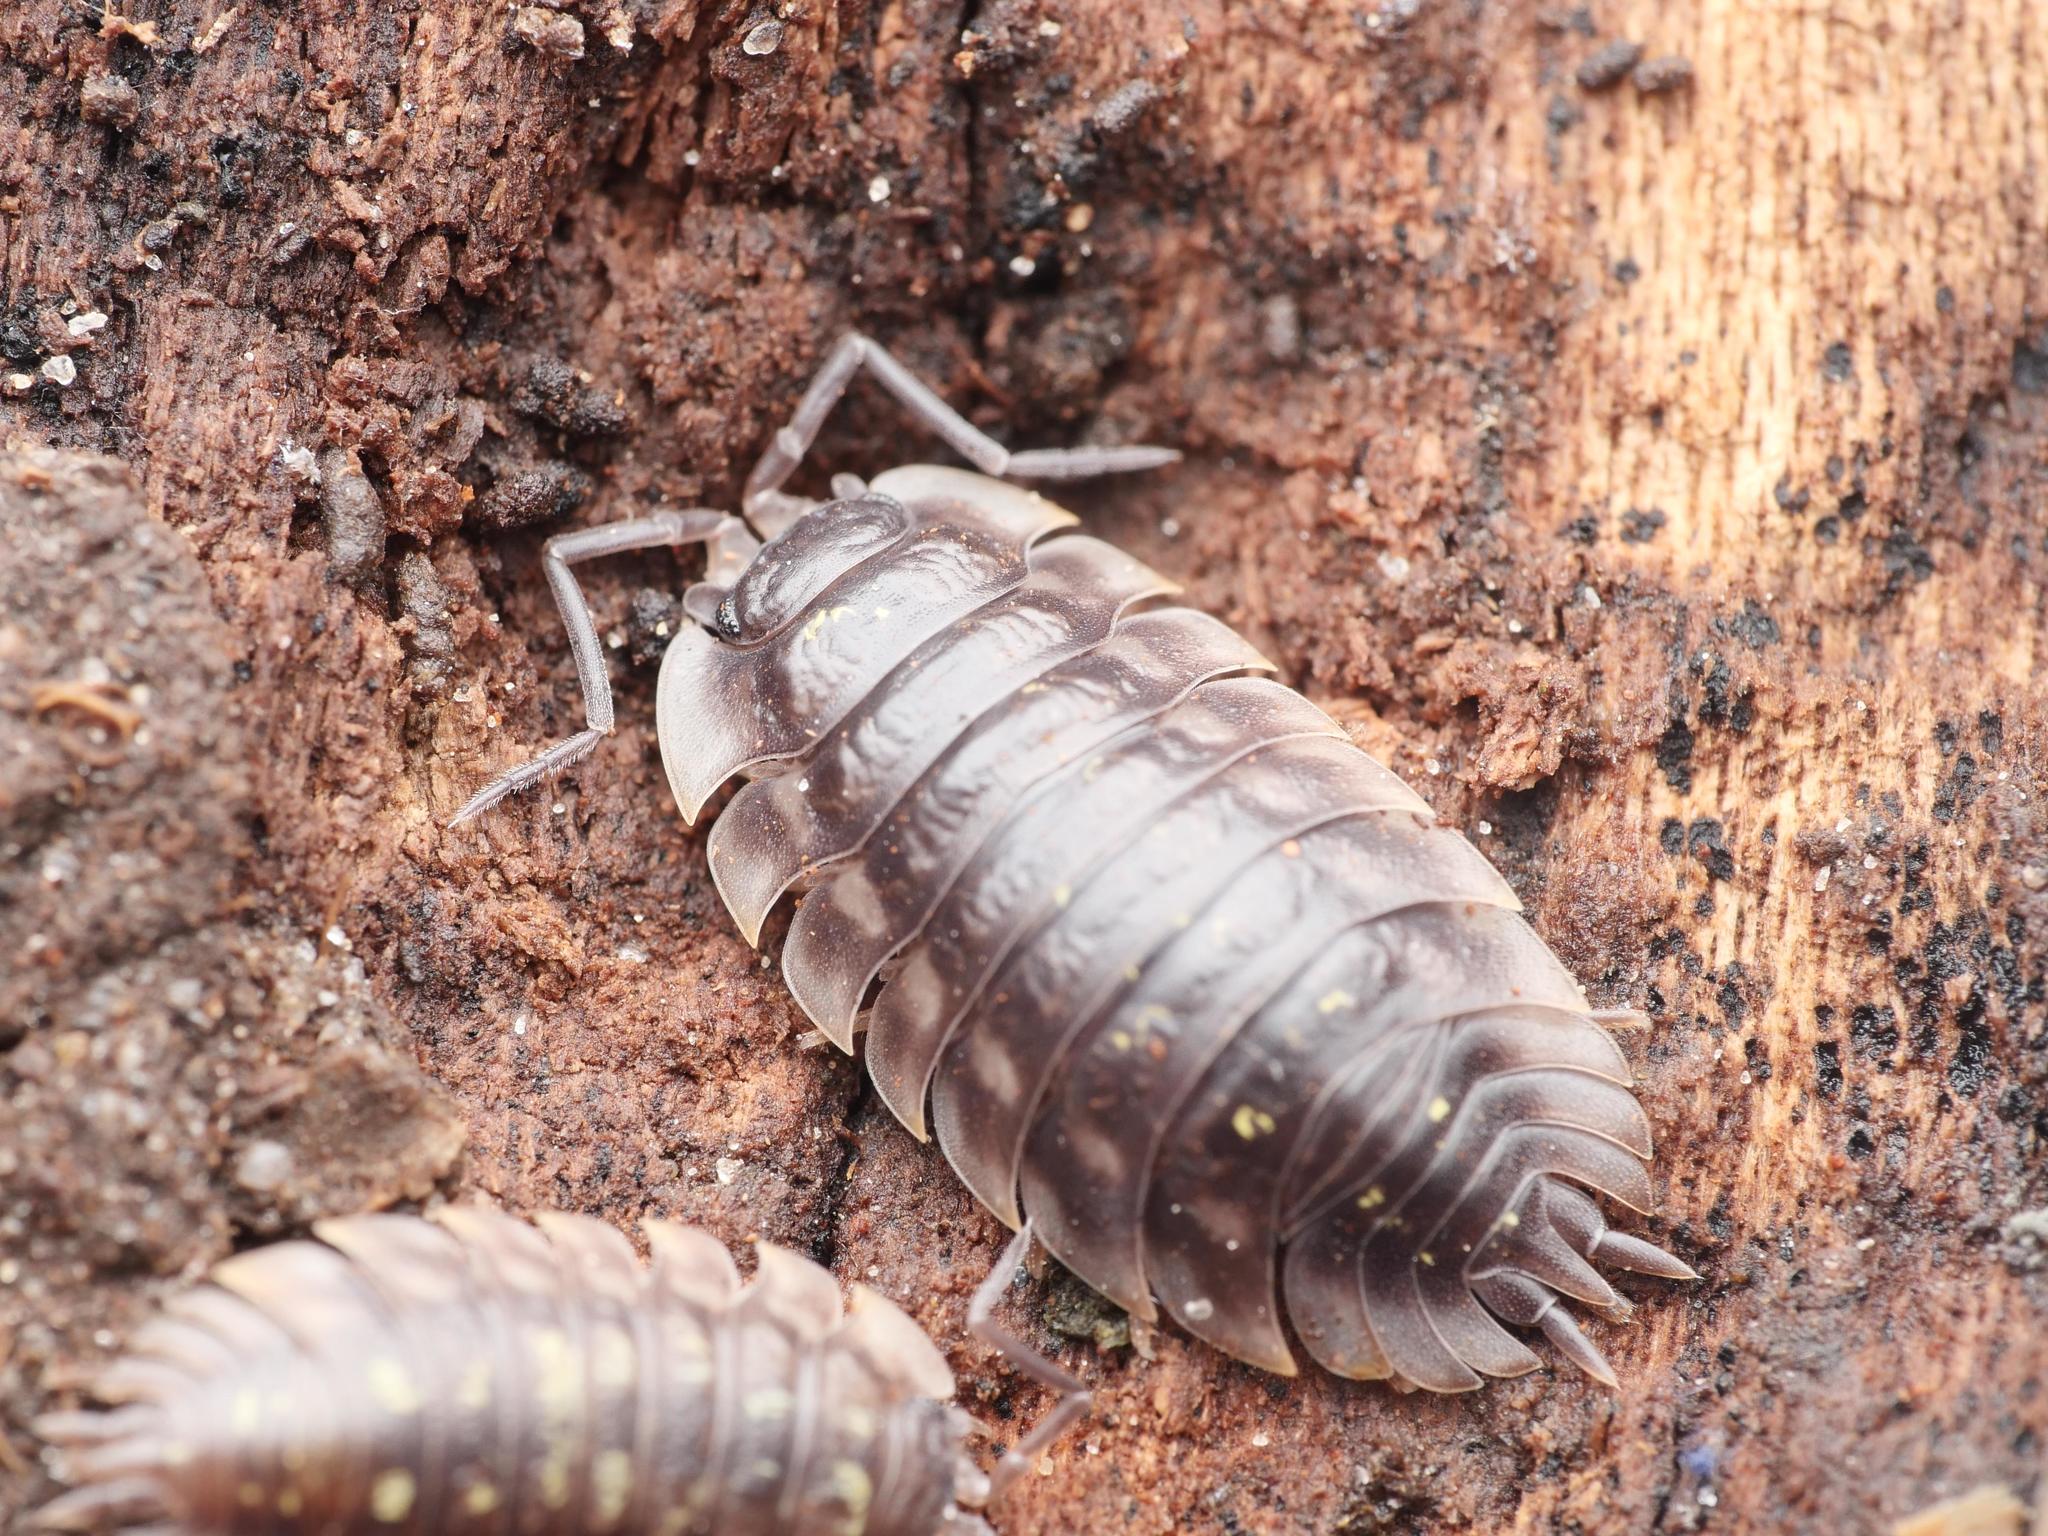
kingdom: Animalia
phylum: Arthropoda
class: Malacostraca
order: Isopoda
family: Oniscidae
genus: Oniscus
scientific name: Oniscus asellus
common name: Common shiny woodlouse
